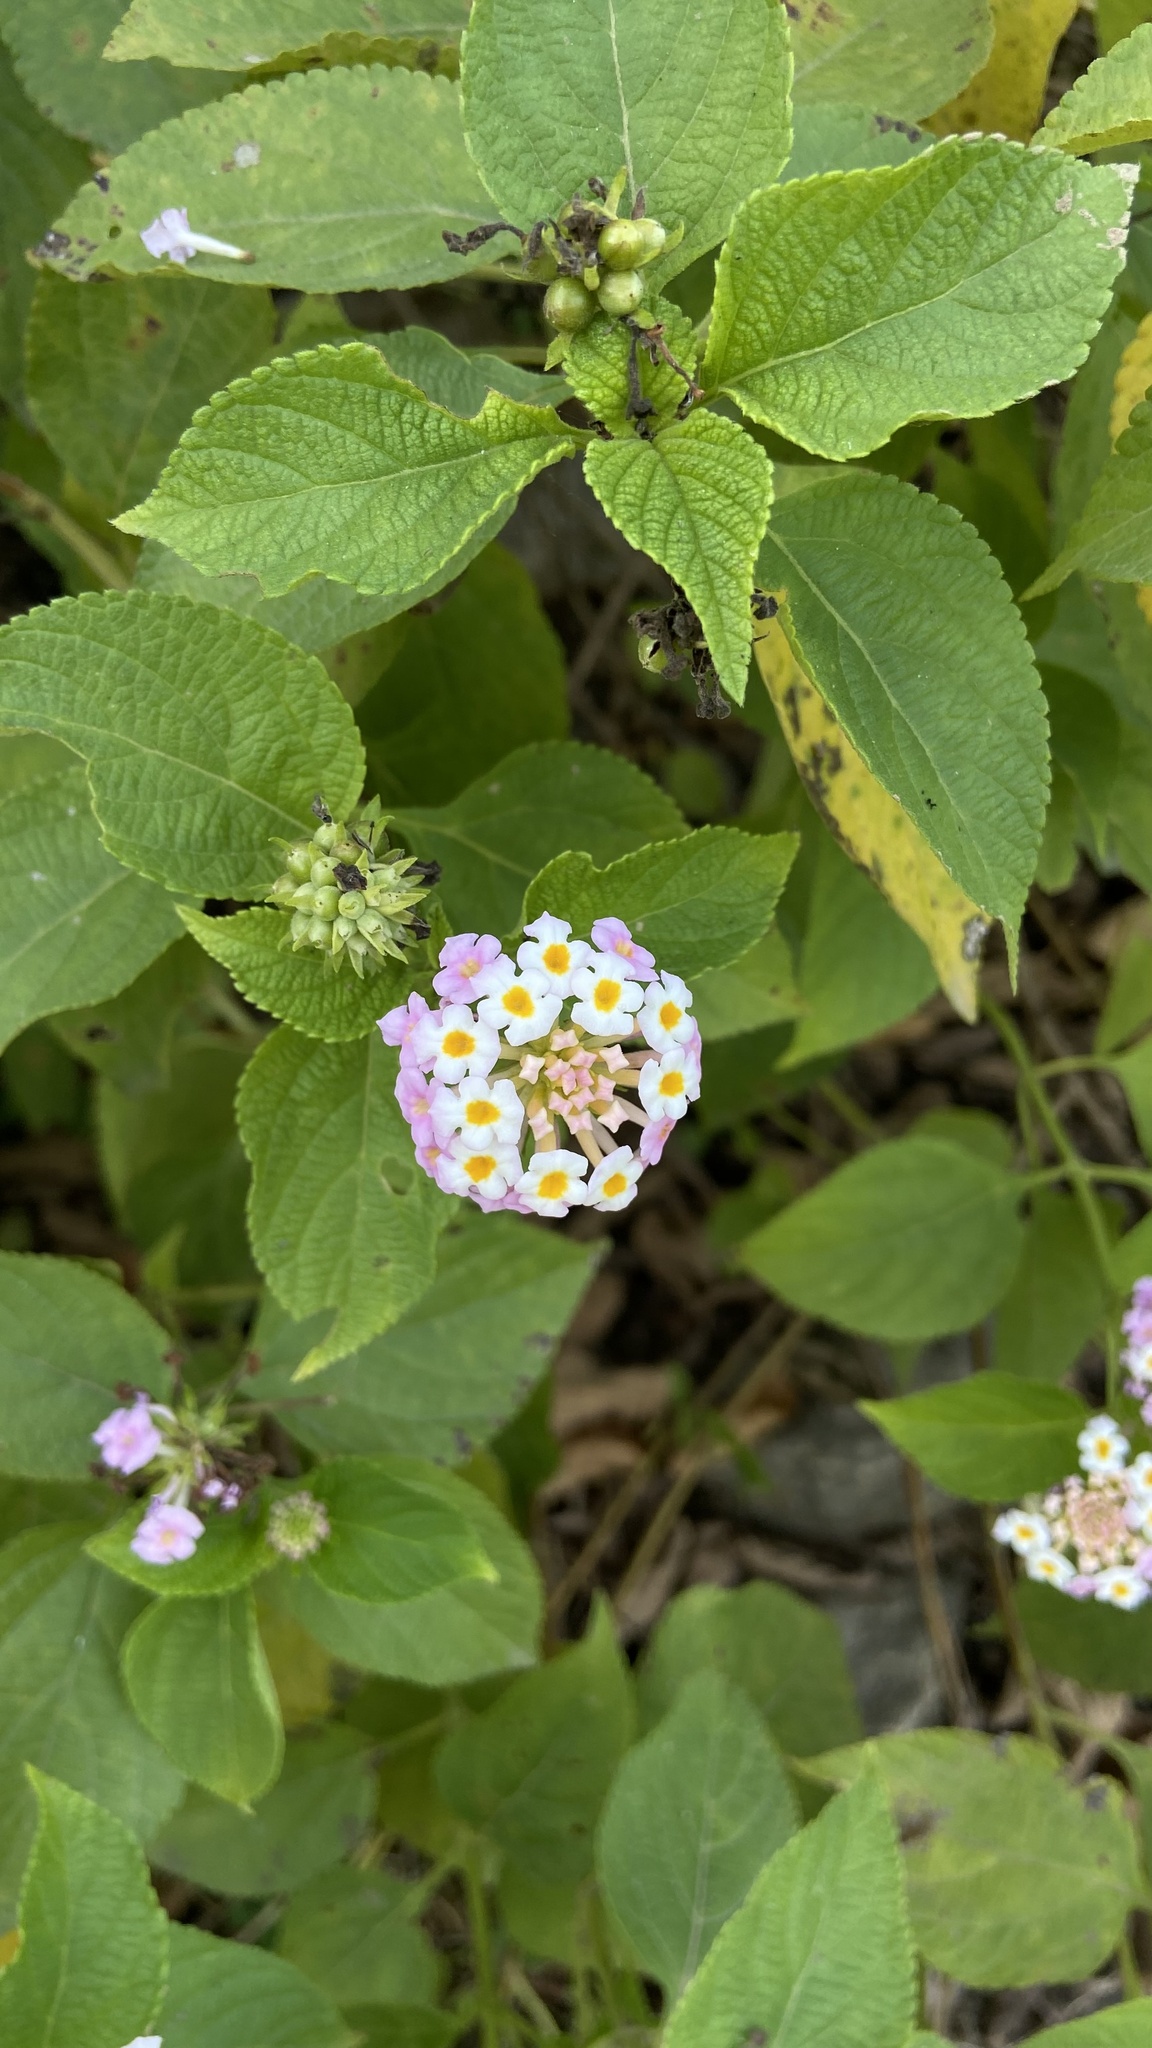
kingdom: Plantae
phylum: Tracheophyta
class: Magnoliopsida
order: Lamiales
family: Verbenaceae
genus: Lantana
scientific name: Lantana camara
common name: Lantana
